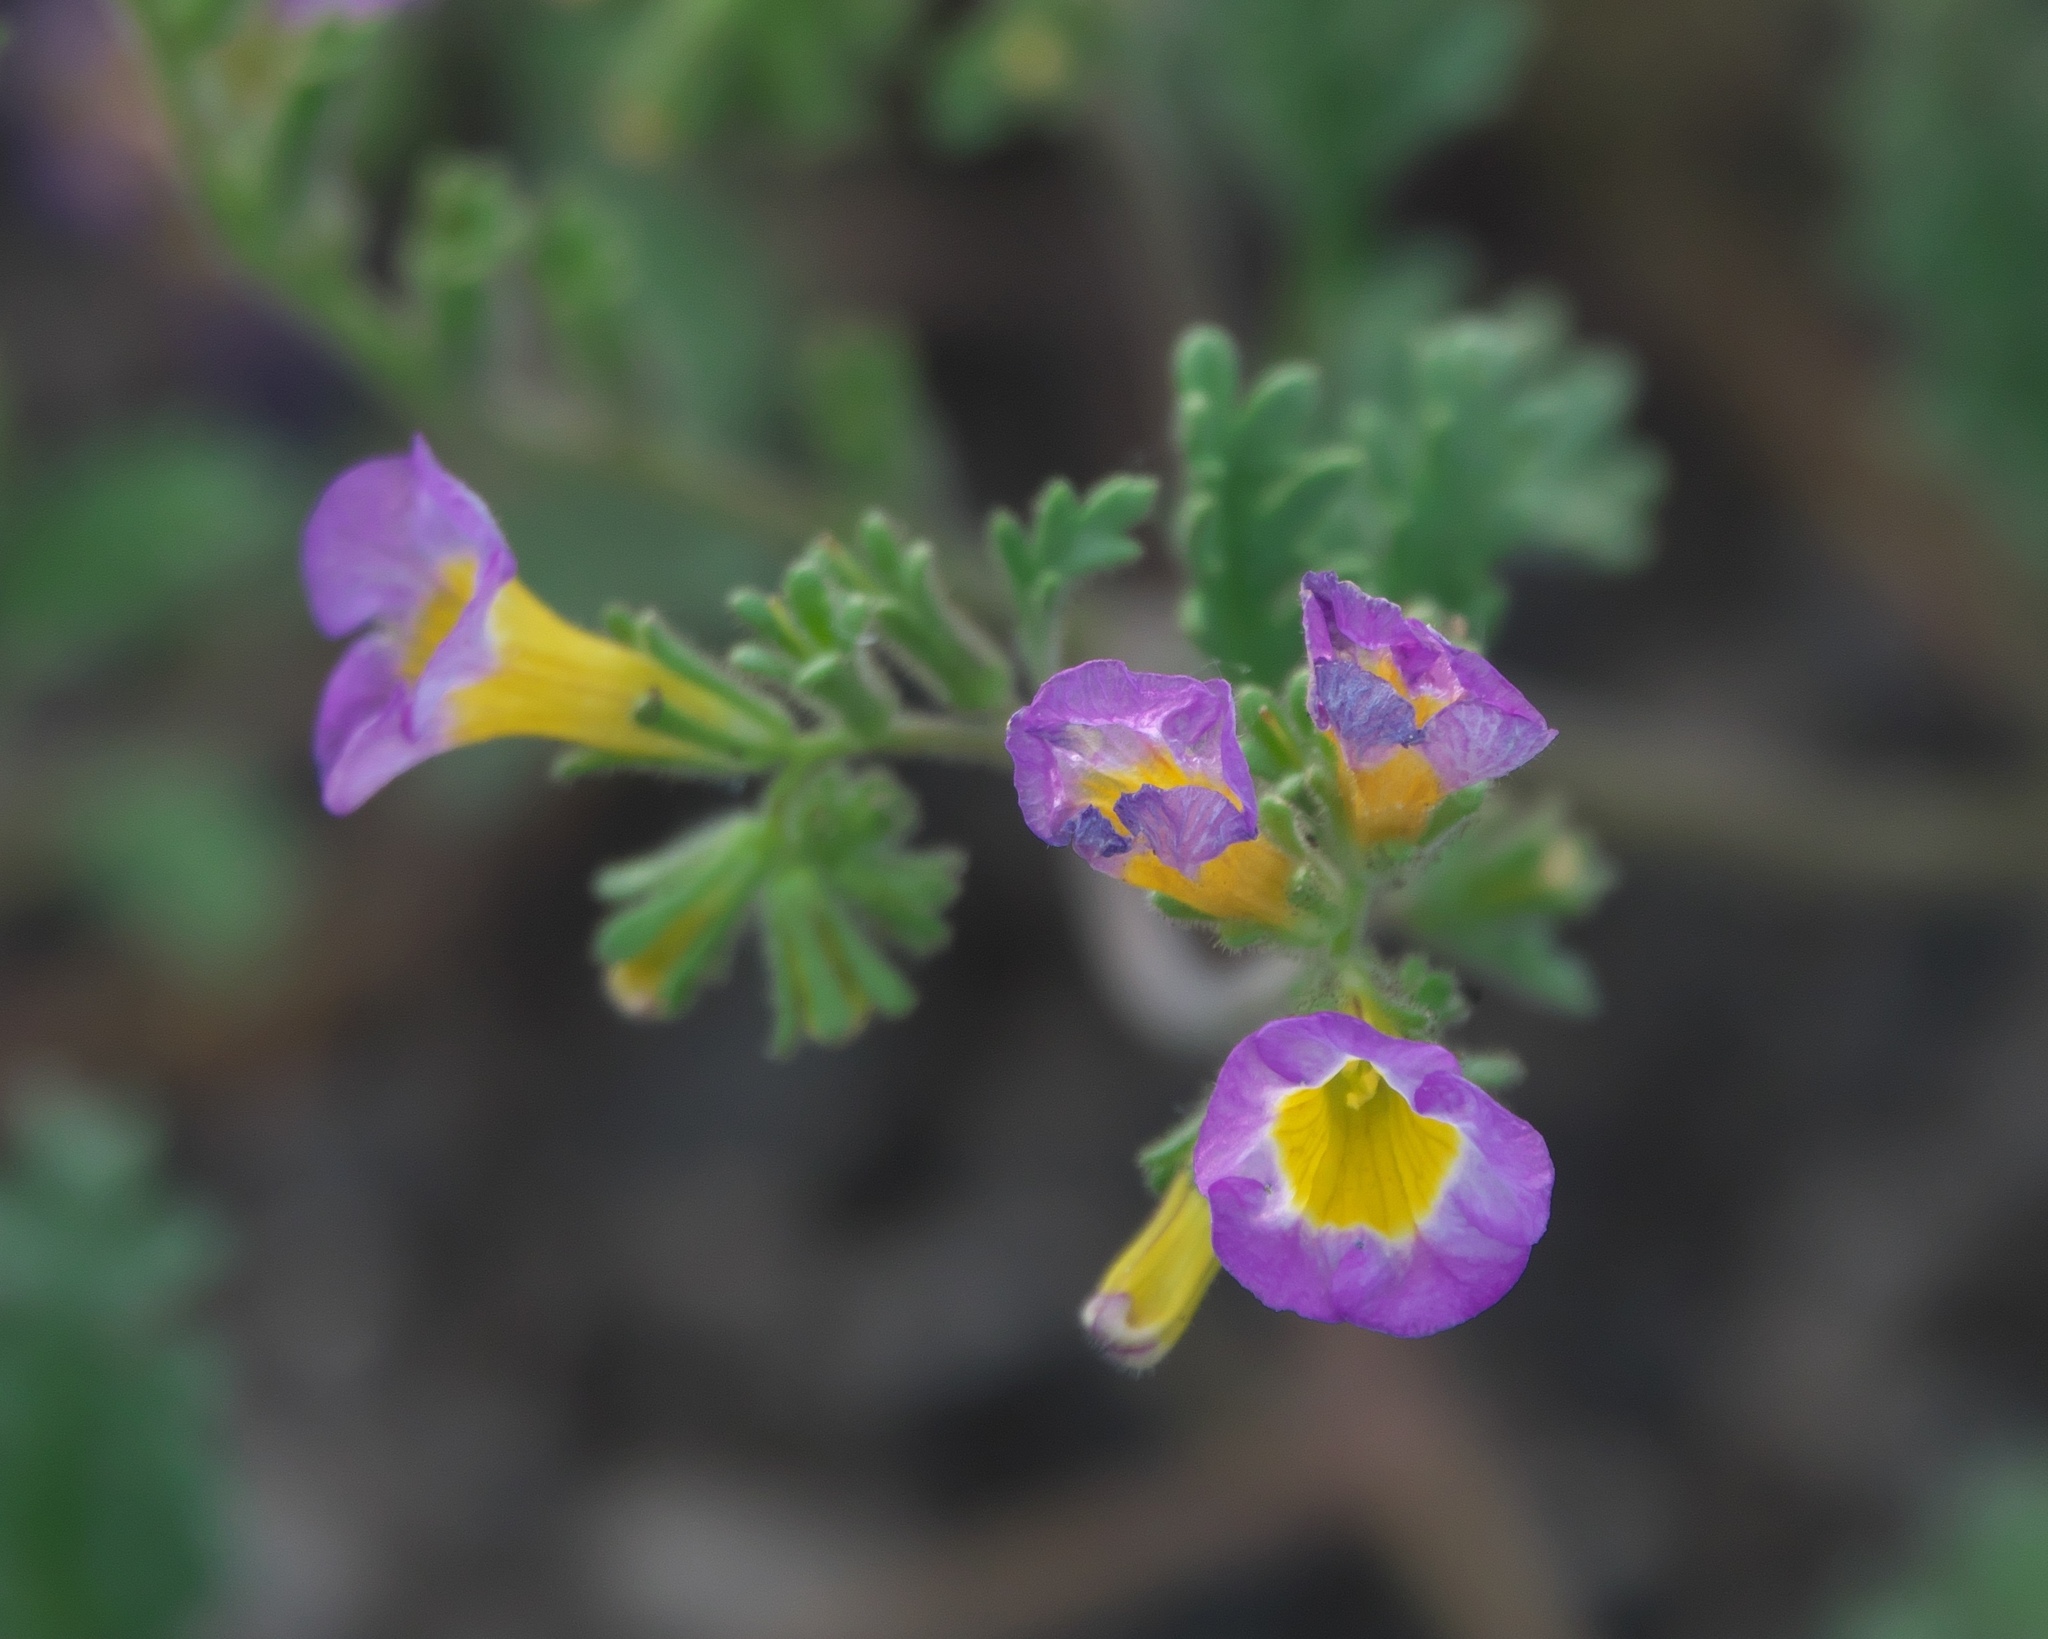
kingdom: Plantae
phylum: Tracheophyta
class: Magnoliopsida
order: Boraginales
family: Hydrophyllaceae
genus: Phacelia
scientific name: Phacelia bicolor
